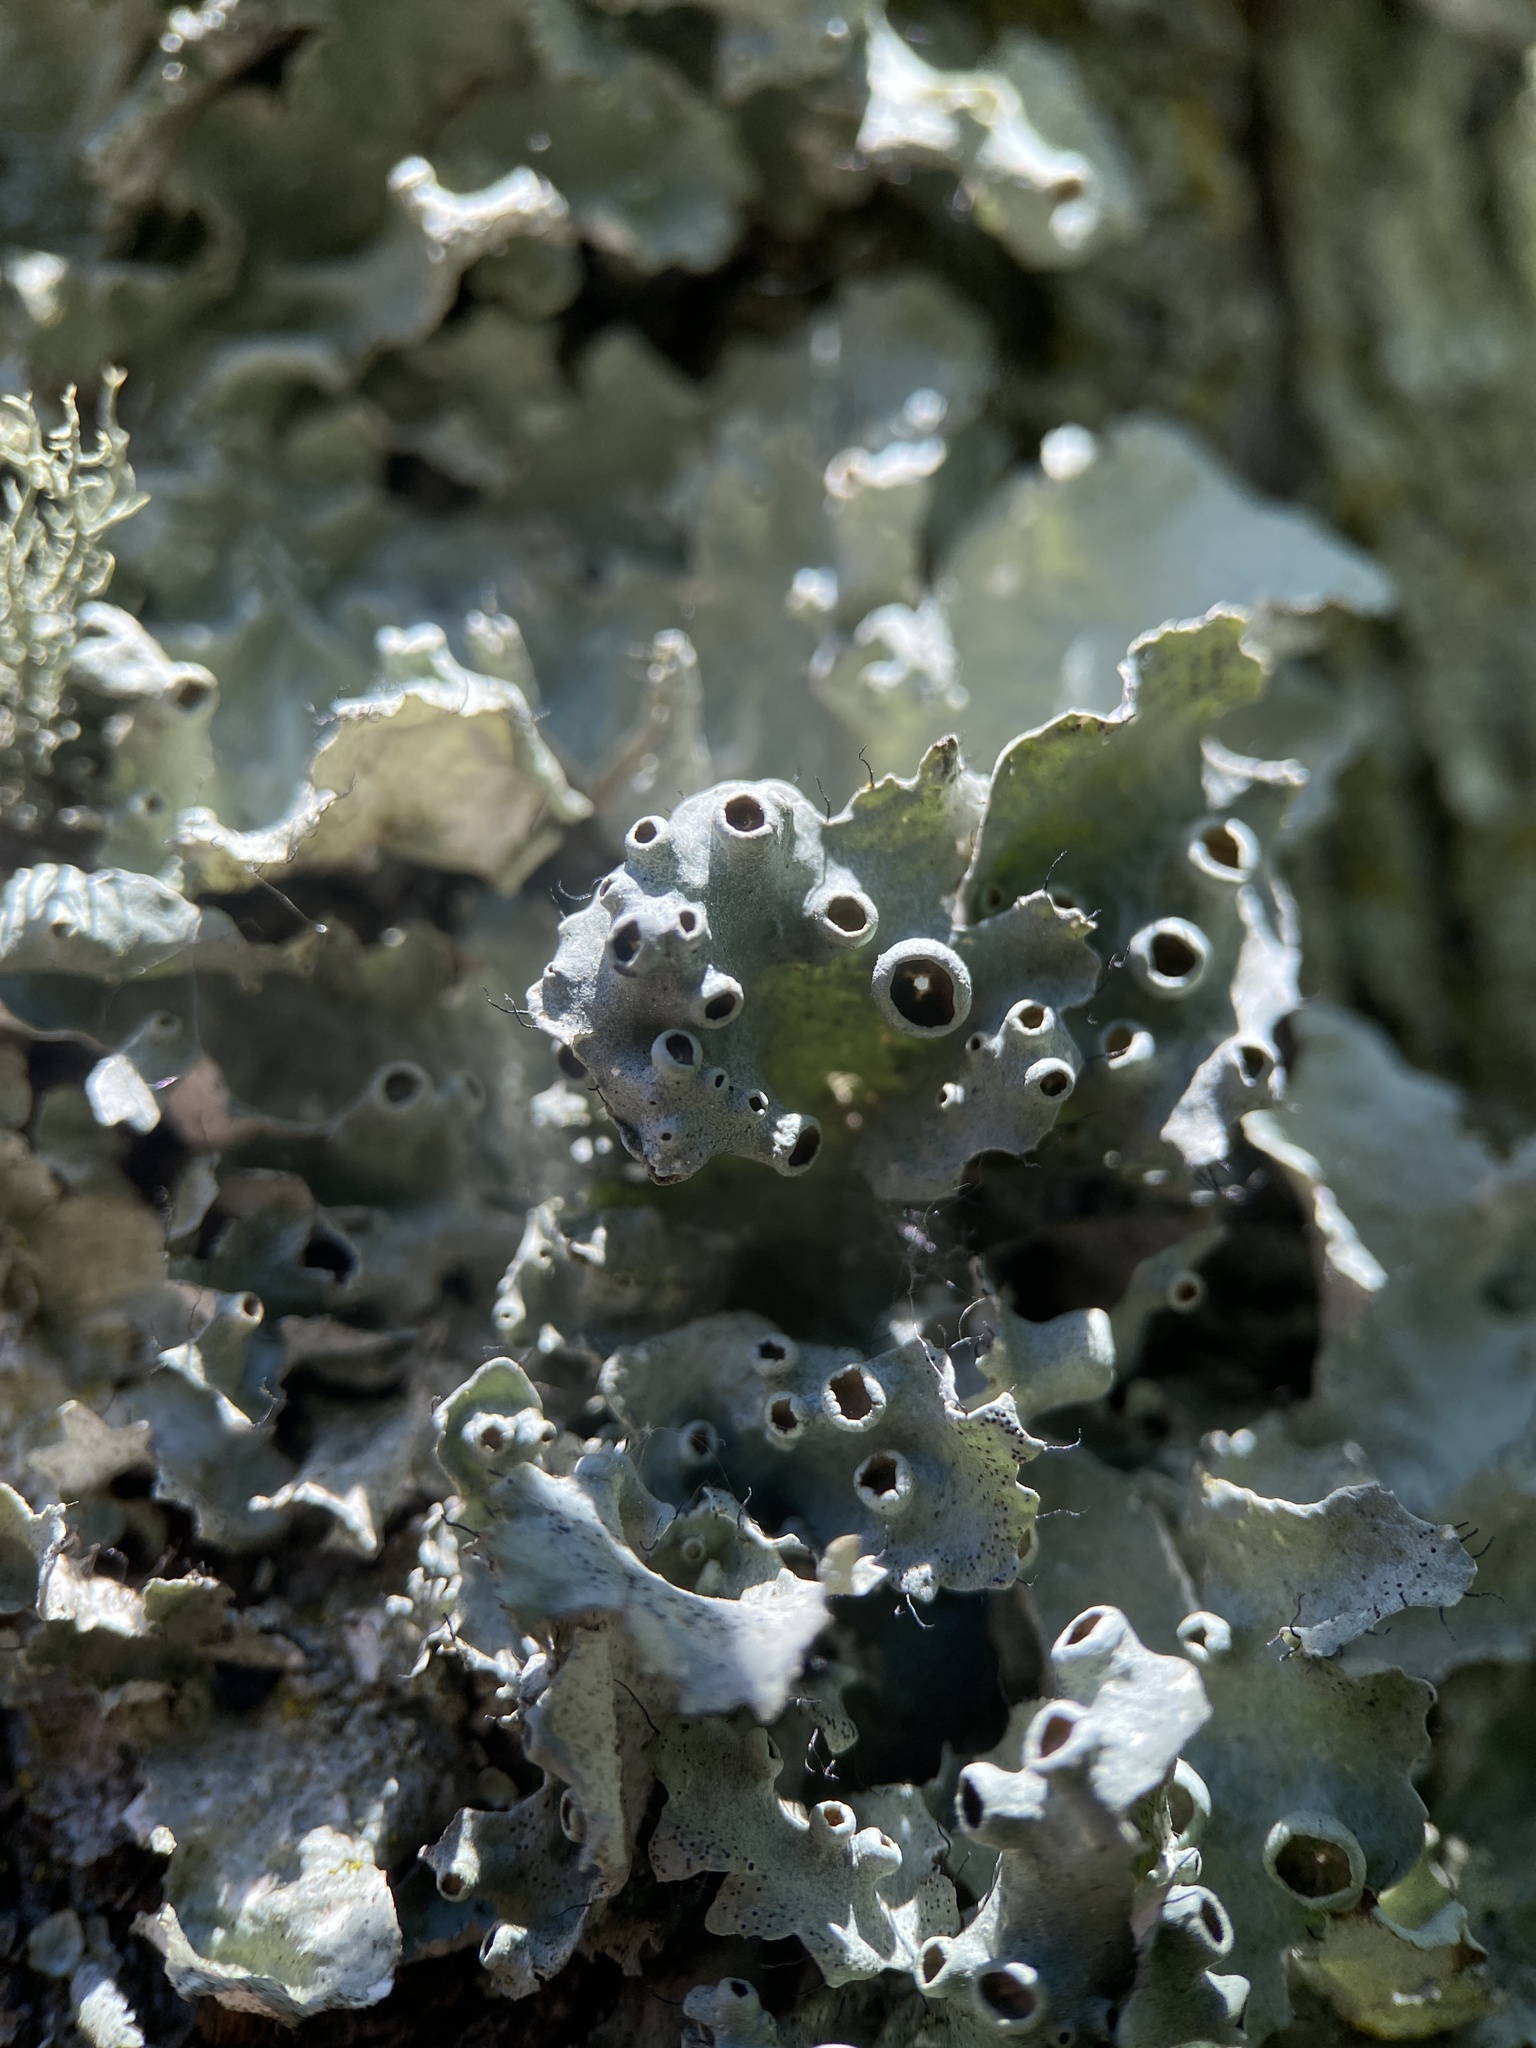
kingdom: Fungi
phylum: Ascomycota
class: Lecanoromycetes
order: Lecanorales
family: Parmeliaceae
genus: Parmotrema
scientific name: Parmotrema perforatum
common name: Perforated ruffle lichen
